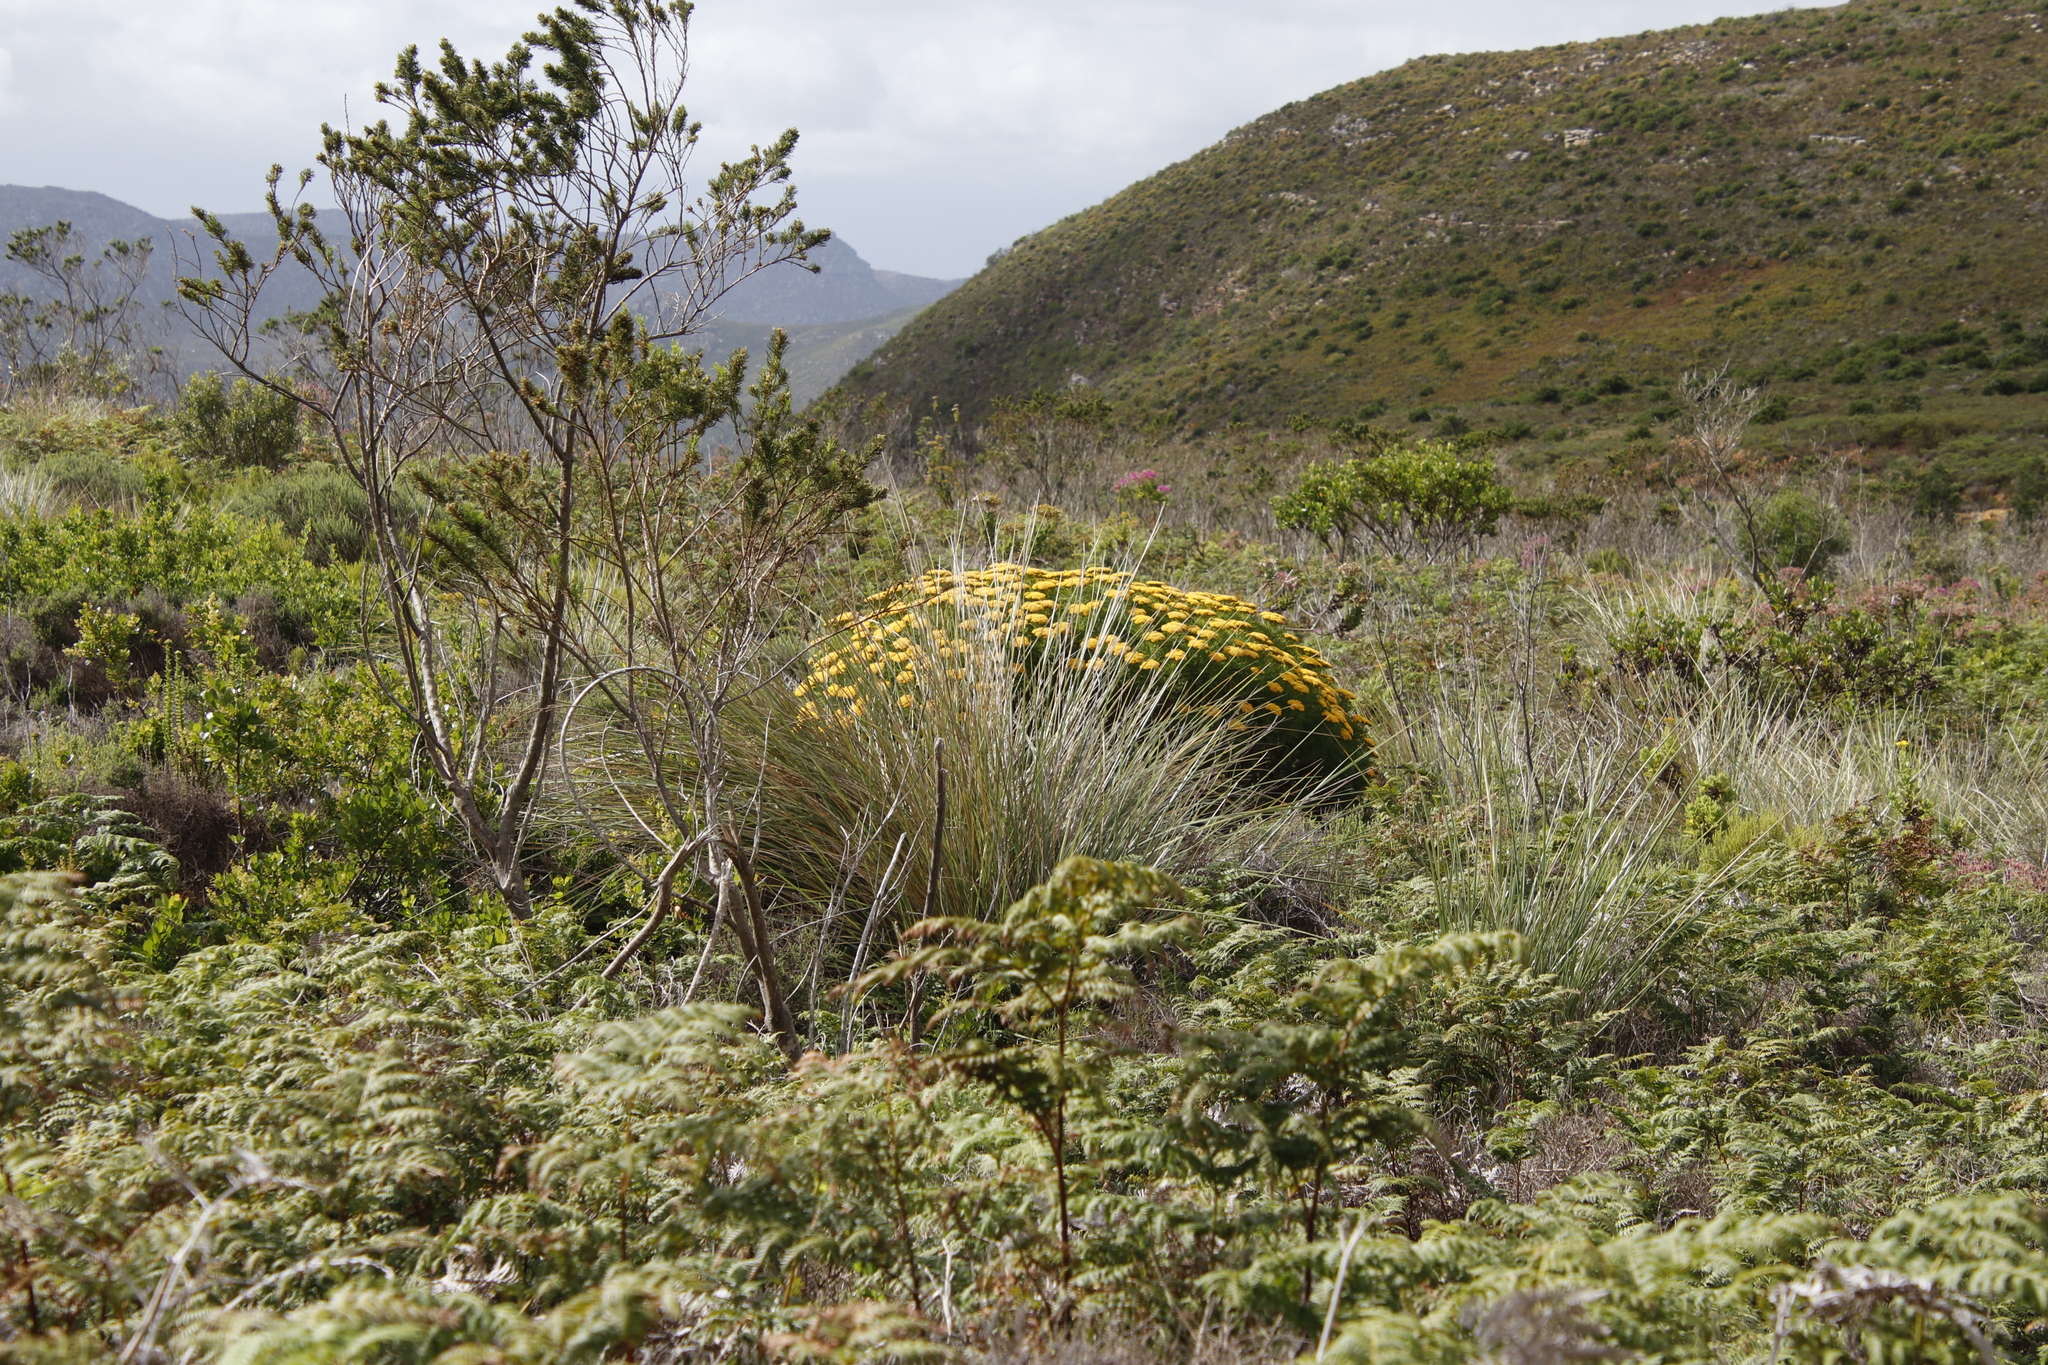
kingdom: Plantae
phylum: Tracheophyta
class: Magnoliopsida
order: Fabales
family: Fabaceae
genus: Psoralea
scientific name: Psoralea pinnata
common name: African scurfpea
